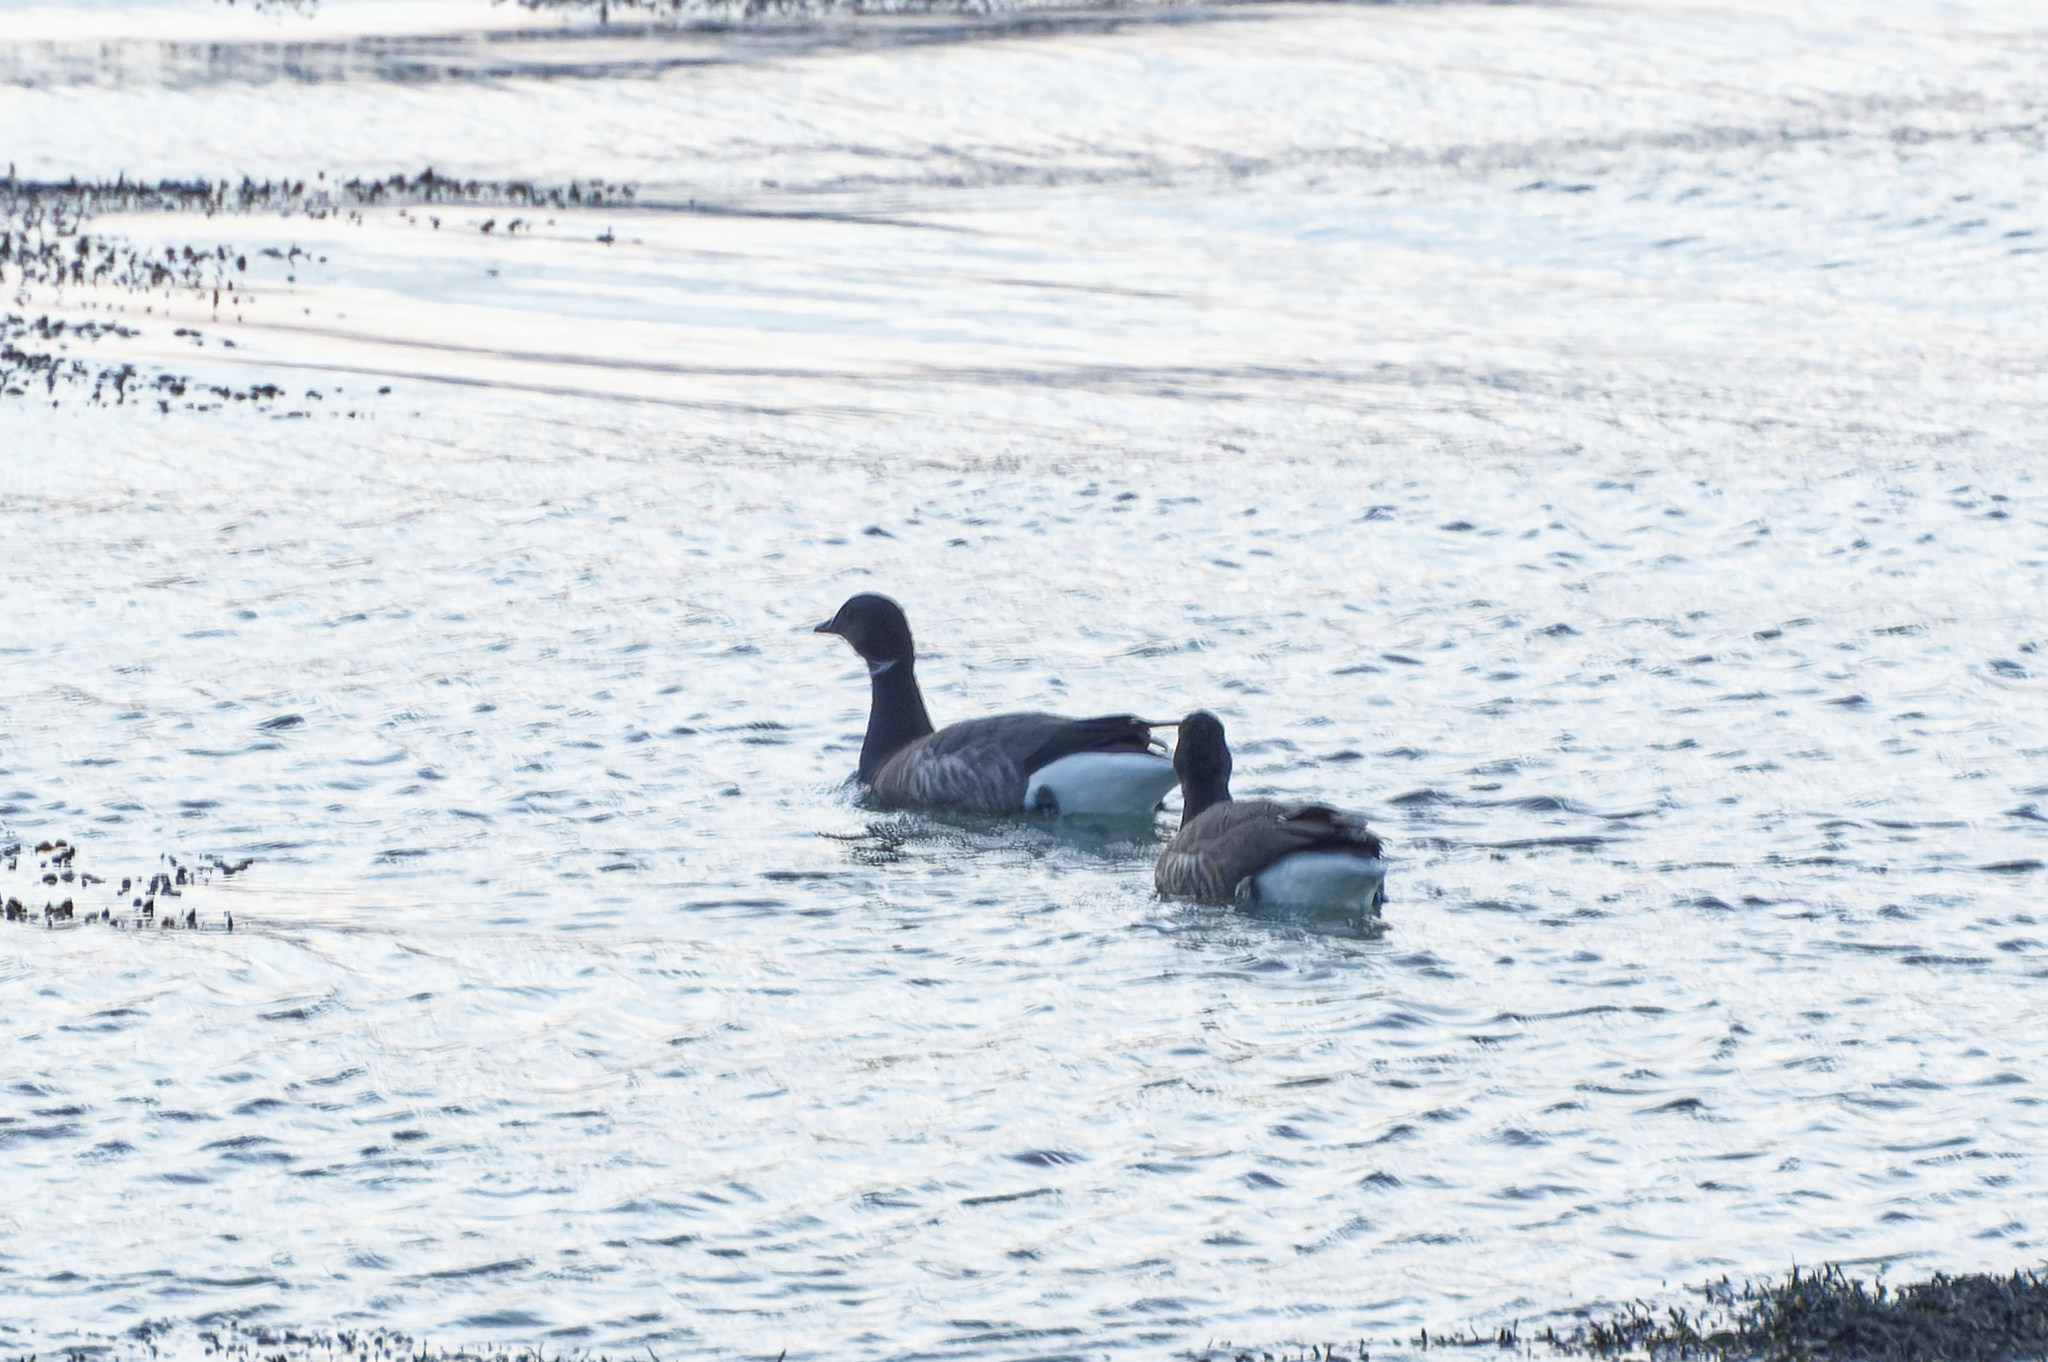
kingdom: Animalia
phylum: Chordata
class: Aves
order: Anseriformes
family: Anatidae
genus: Branta
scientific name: Branta bernicla
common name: Brant goose
